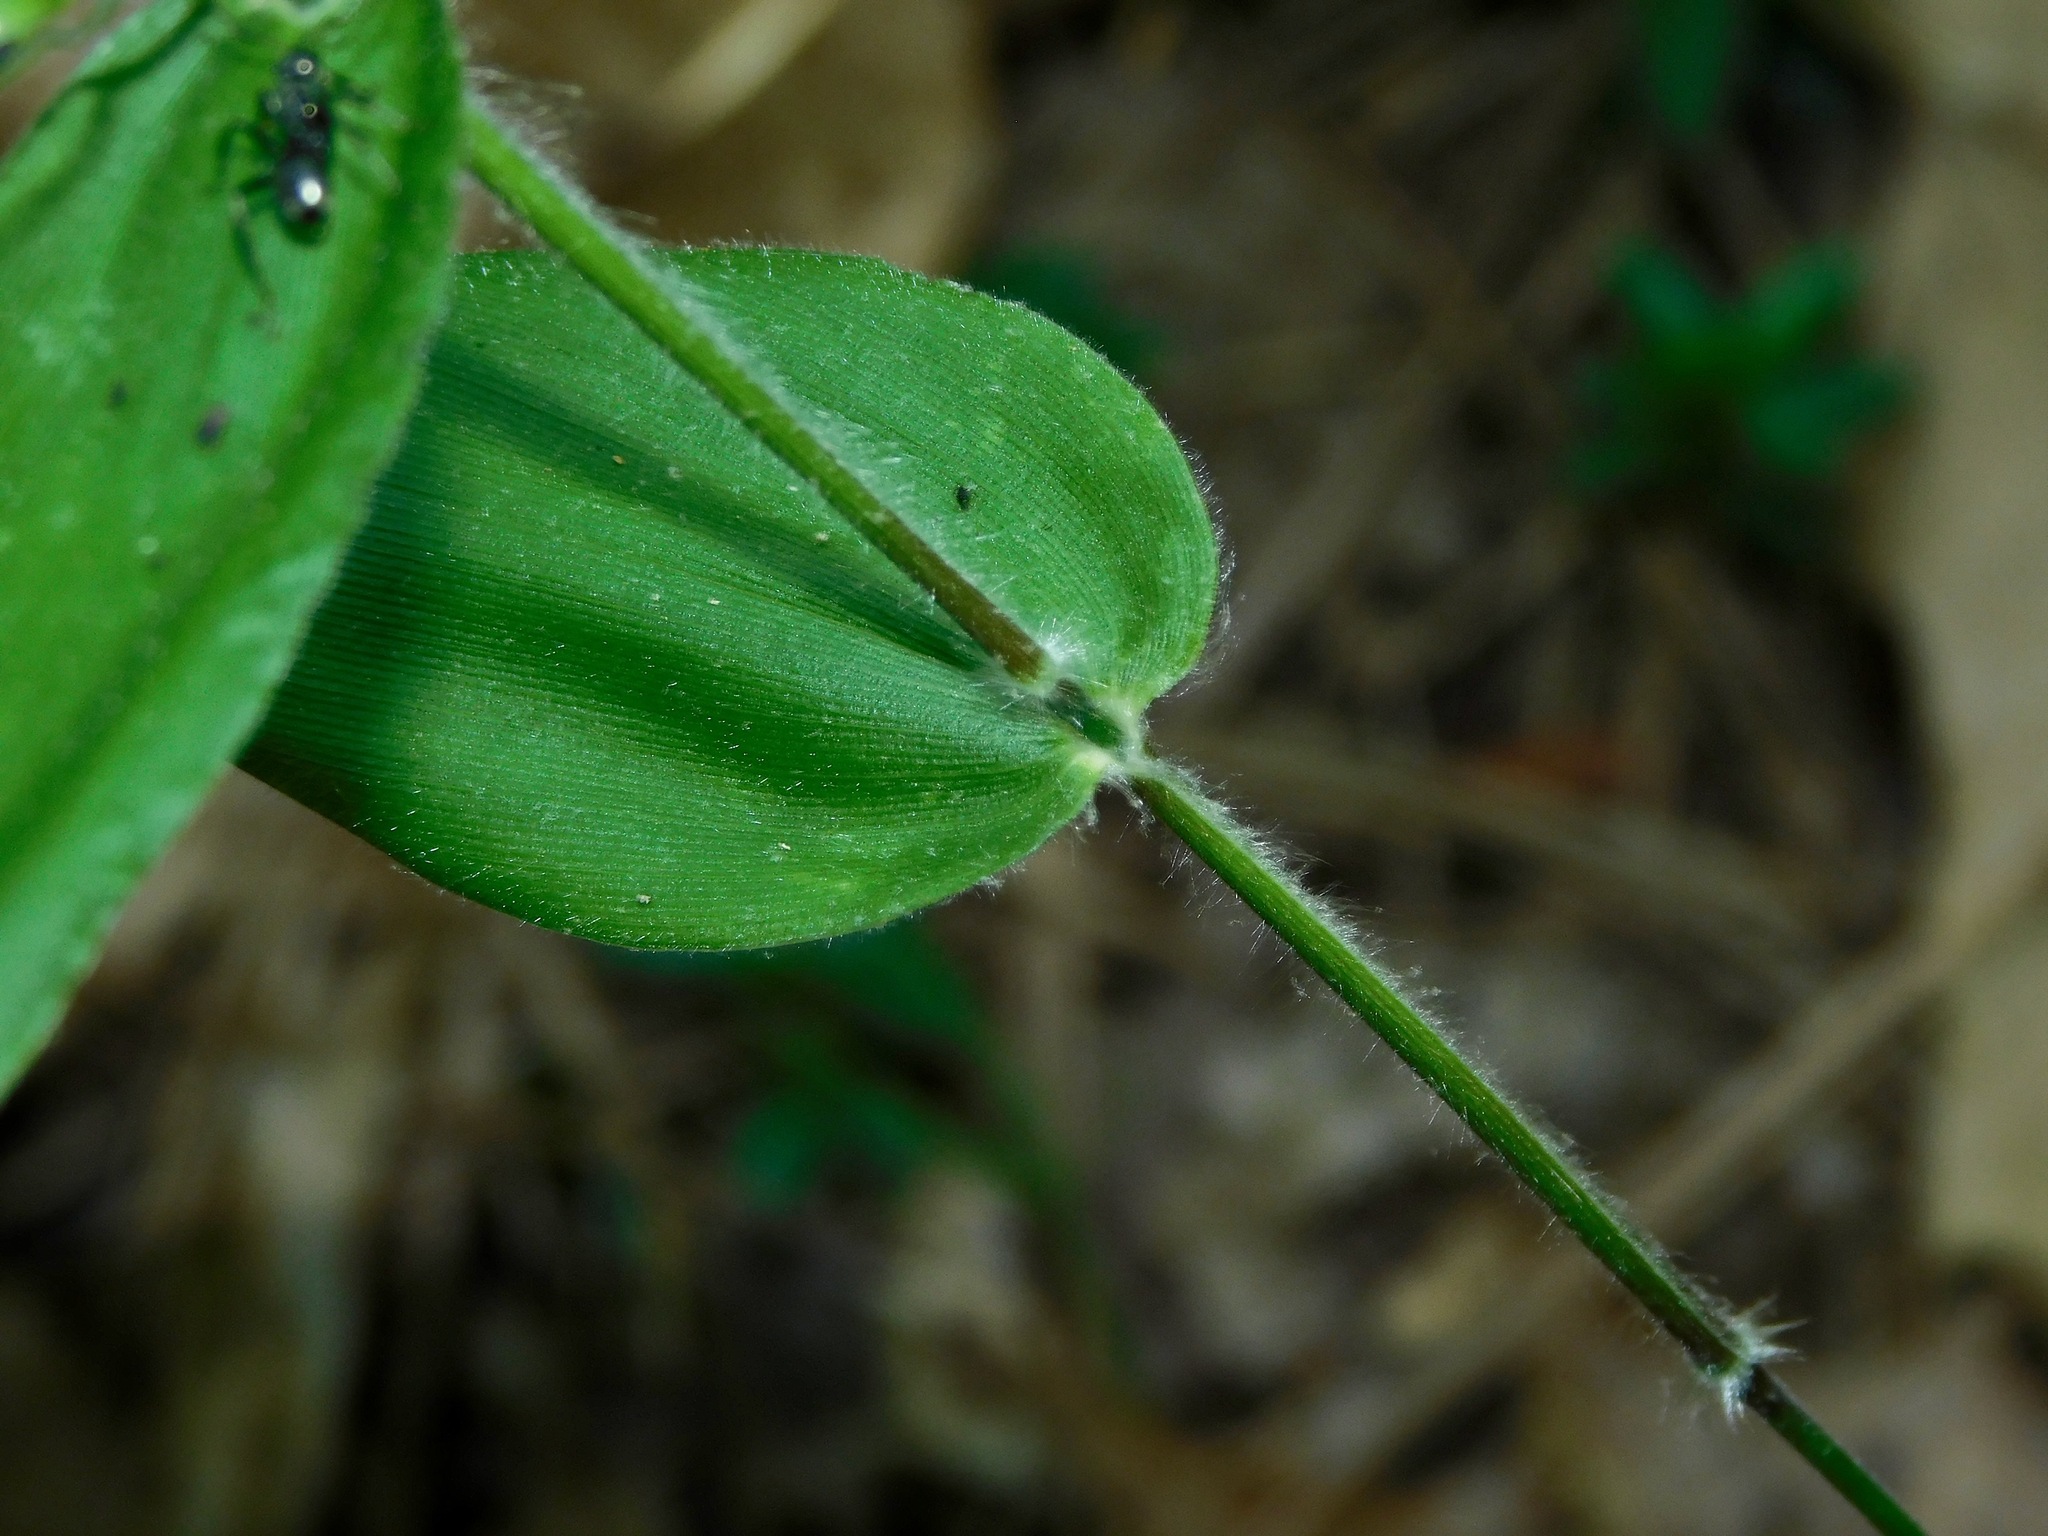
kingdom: Plantae
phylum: Tracheophyta
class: Liliopsida
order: Poales
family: Poaceae
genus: Dichanthelium
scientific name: Dichanthelium boscii
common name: Bosc's panic grass
